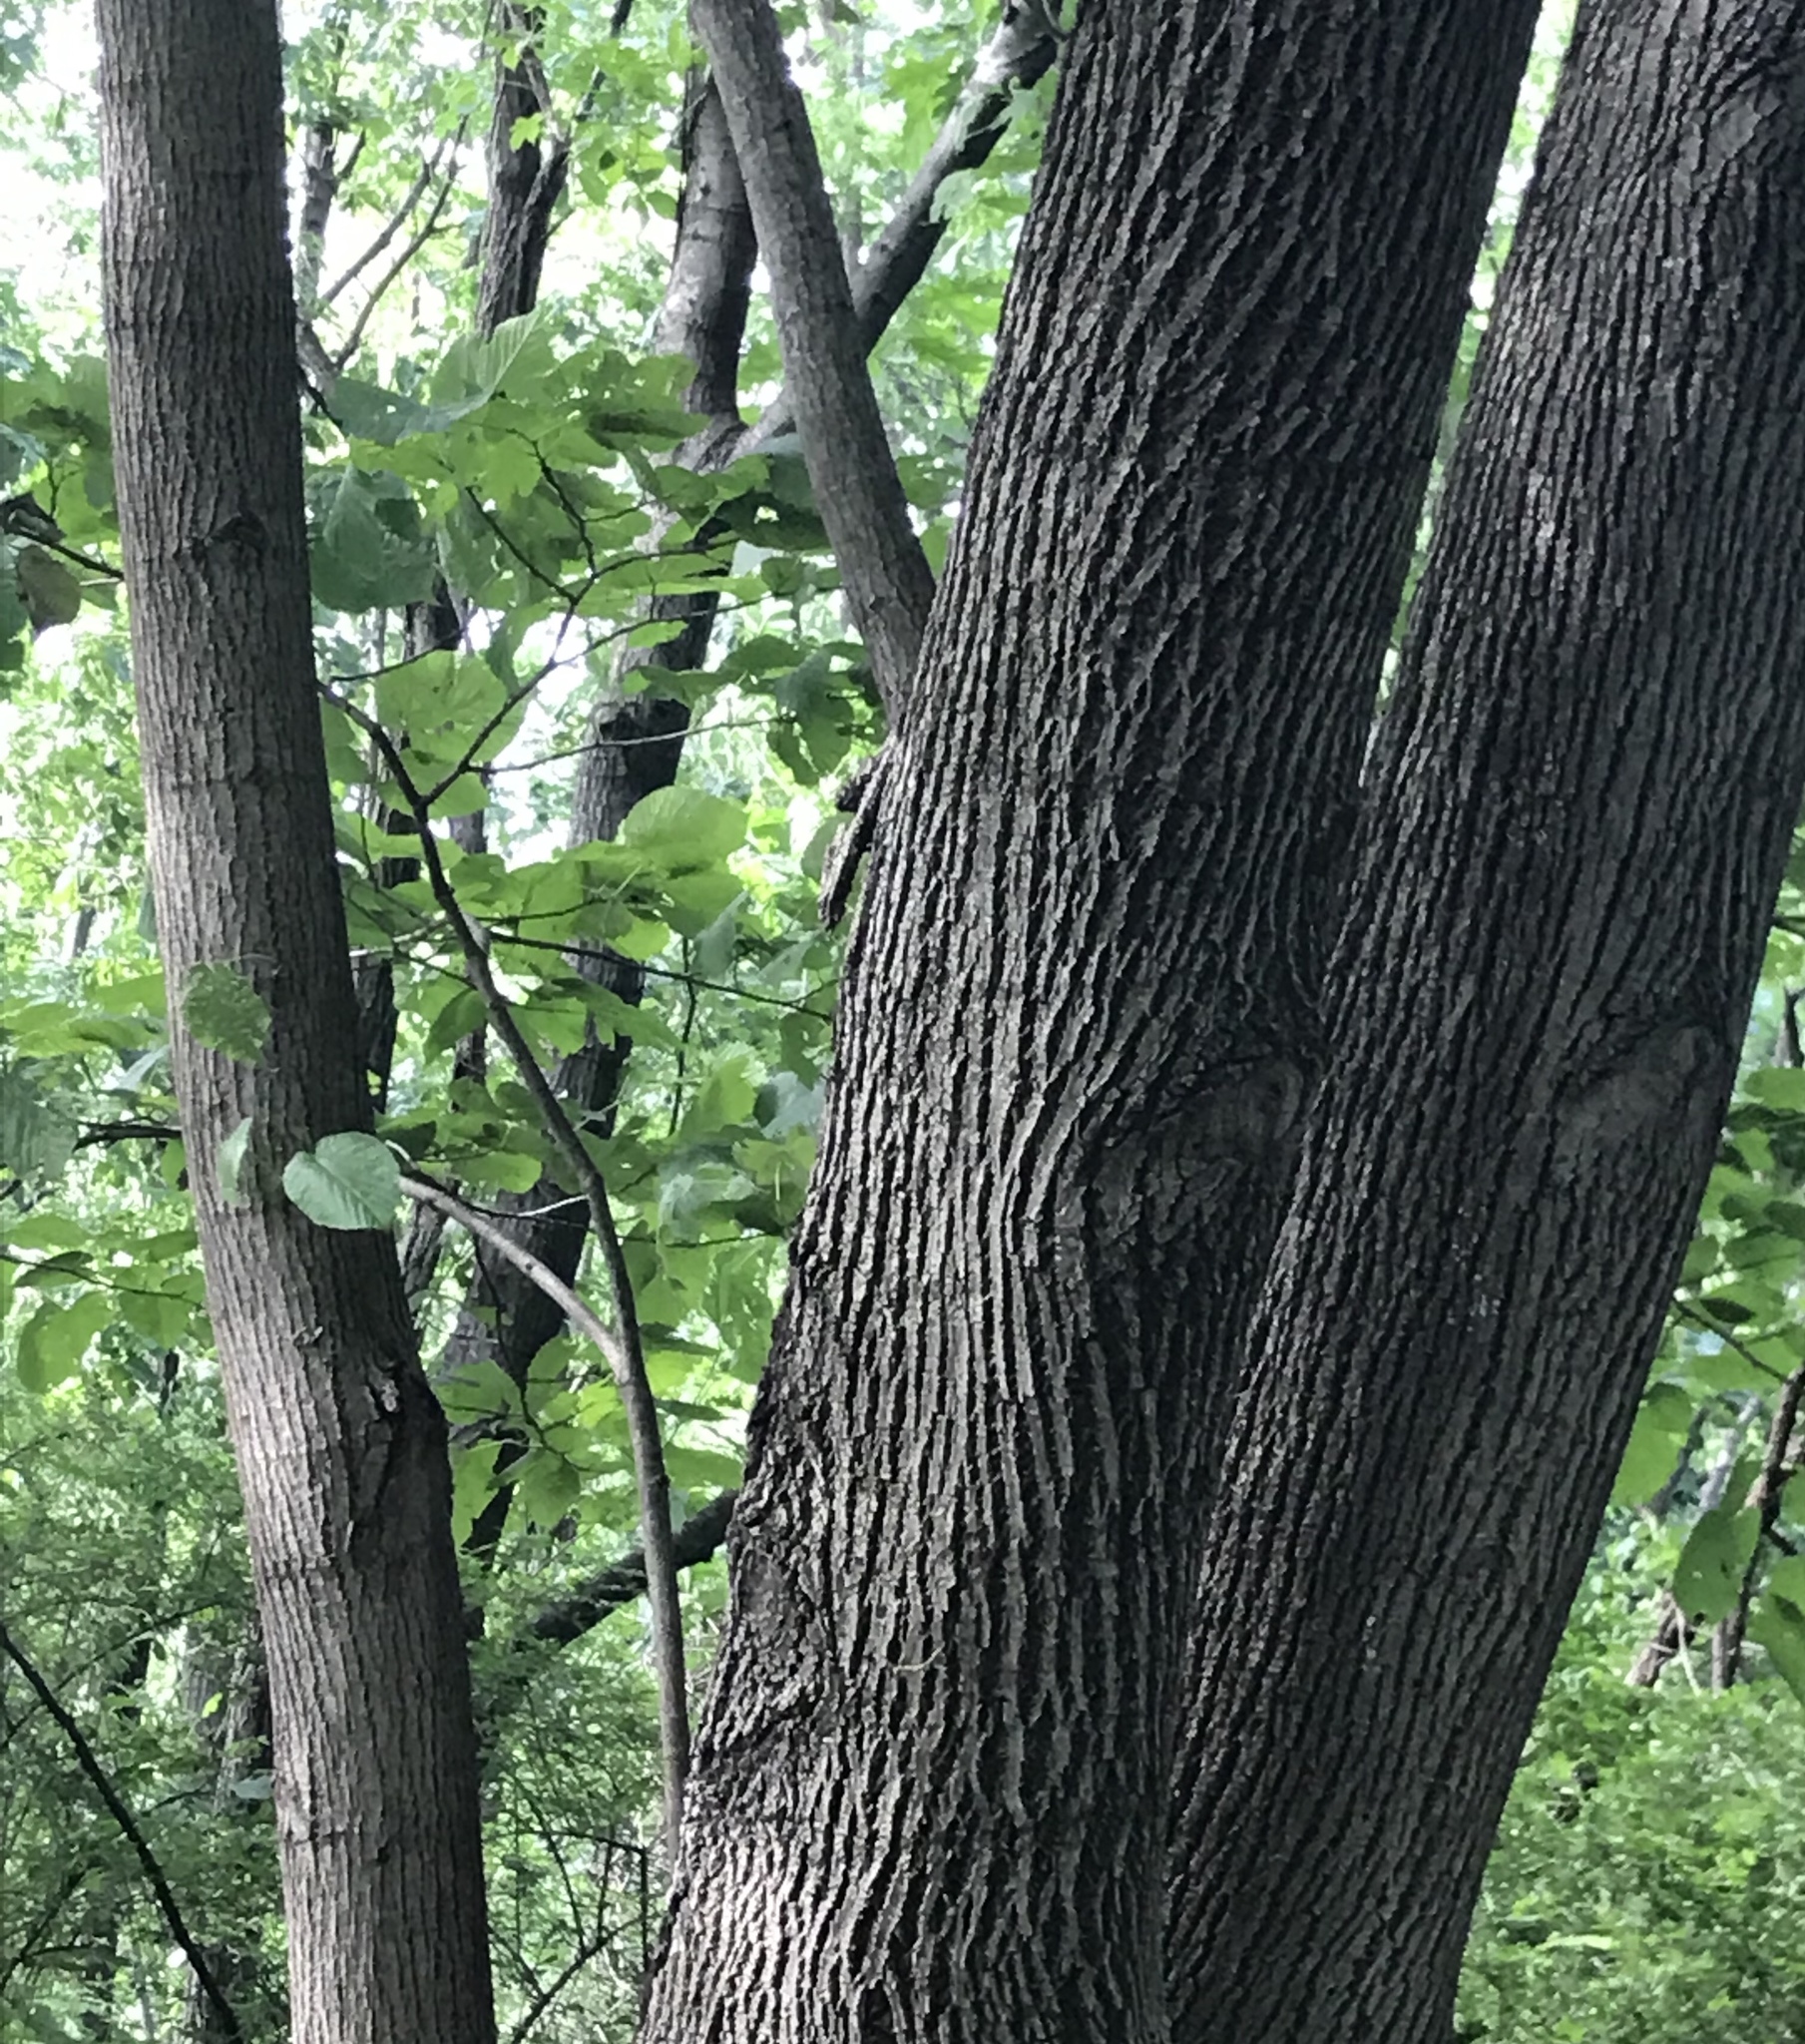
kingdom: Plantae
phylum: Tracheophyta
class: Magnoliopsida
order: Malvales
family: Malvaceae
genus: Tilia
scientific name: Tilia americana
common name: Basswood
